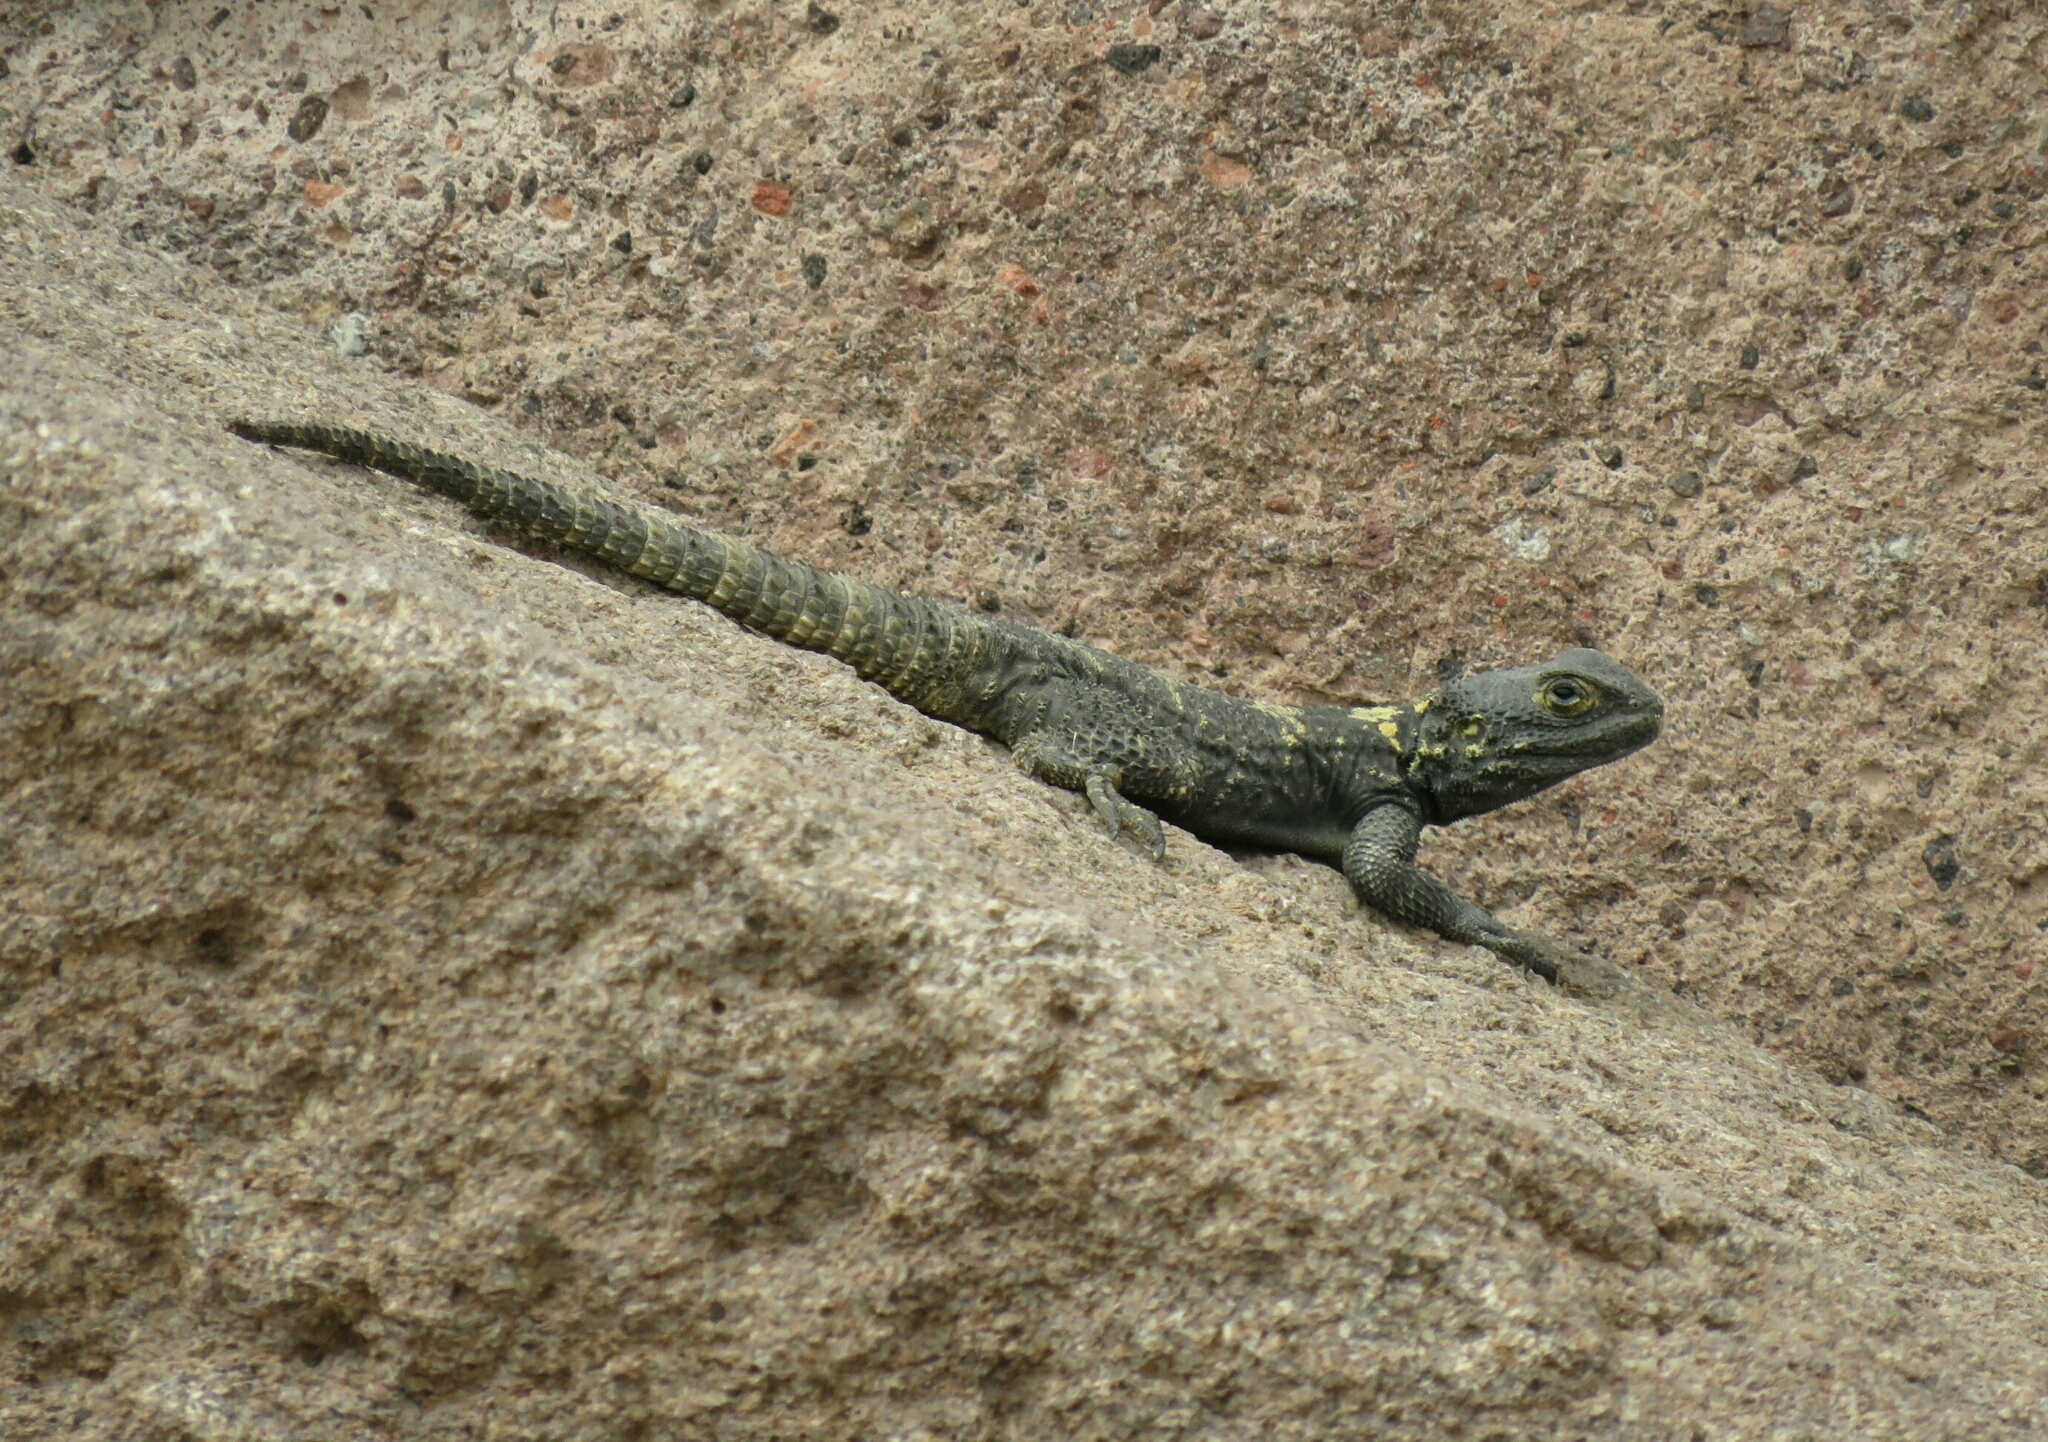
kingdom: Animalia
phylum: Chordata
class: Squamata
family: Agamidae
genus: Stellagama
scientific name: Stellagama stellio
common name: Starred agama
